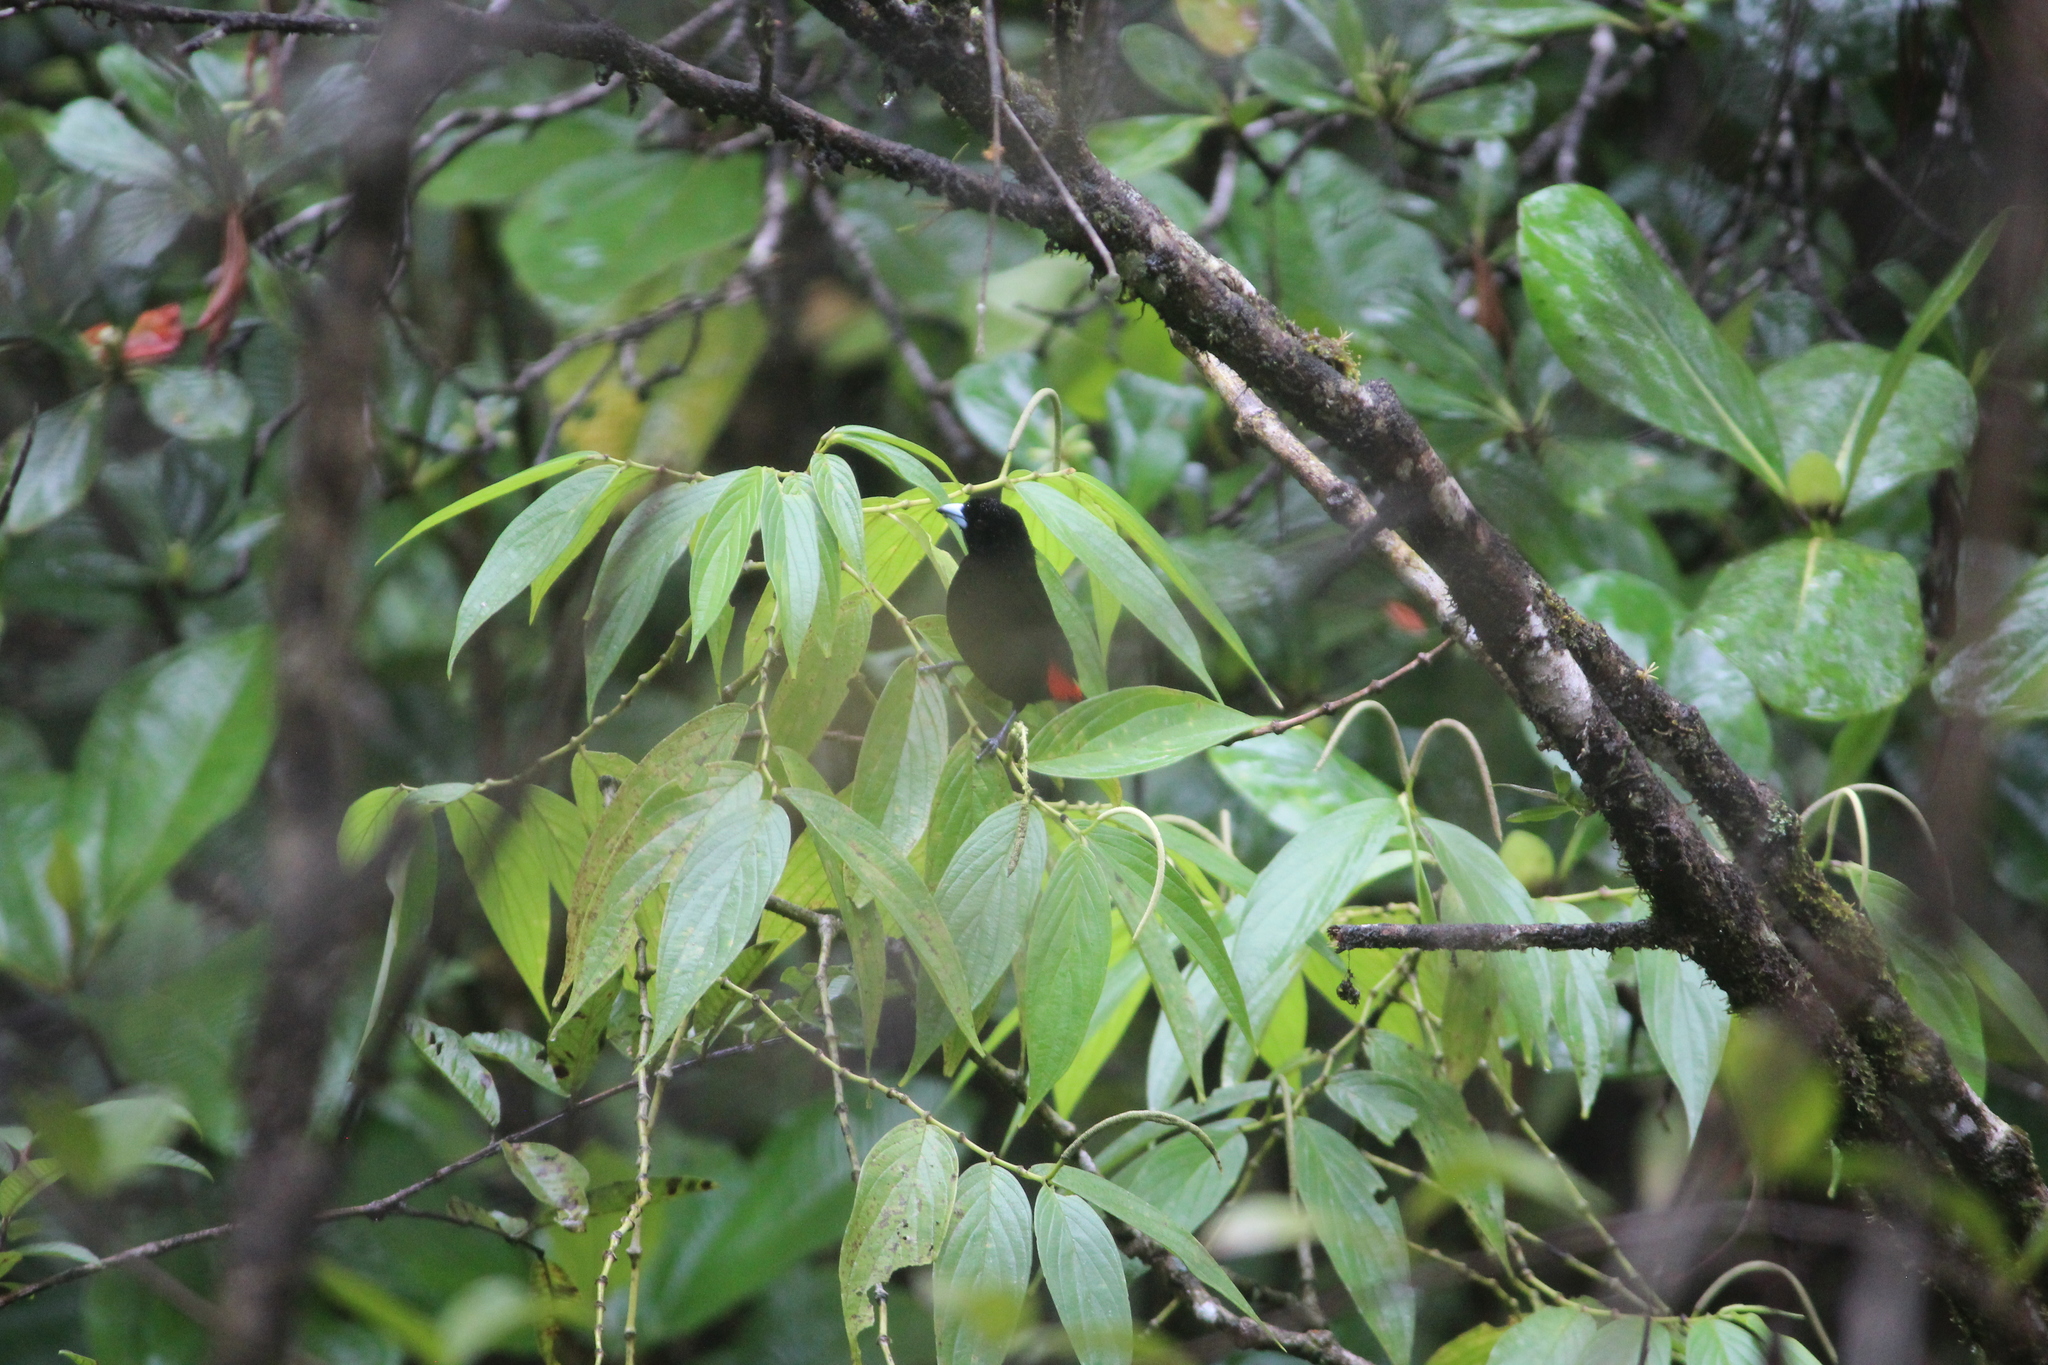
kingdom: Plantae
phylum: Tracheophyta
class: Magnoliopsida
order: Piperales
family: Piperaceae
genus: Piper
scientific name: Piper aduncum
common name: Spiked pepper
